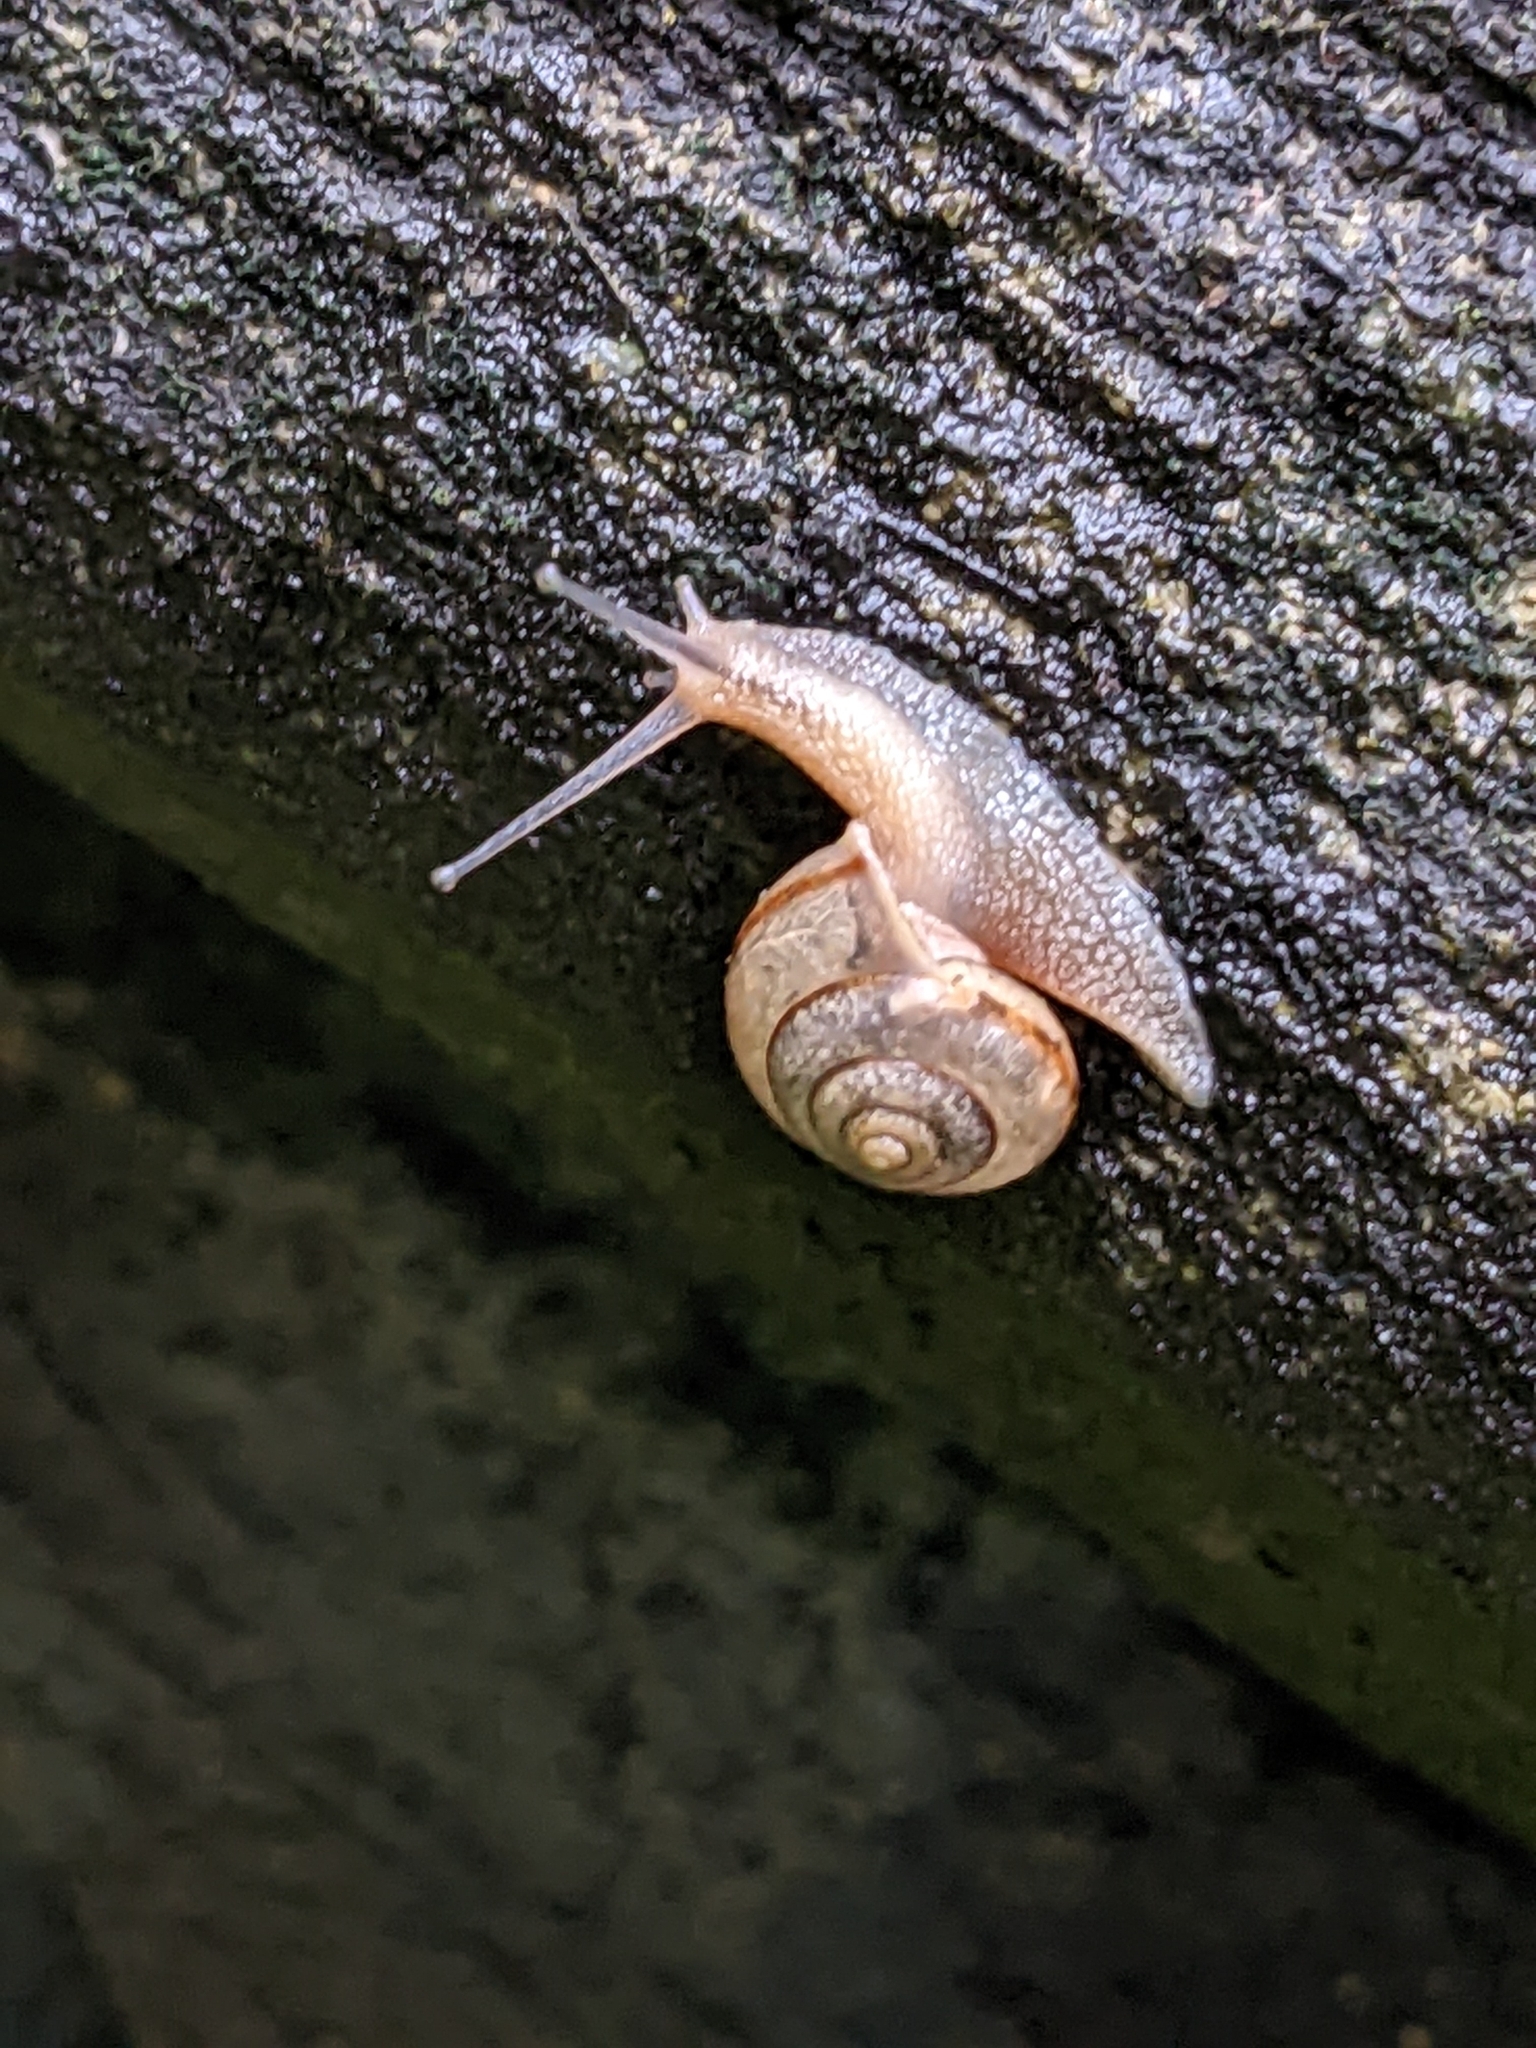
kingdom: Animalia
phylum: Mollusca
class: Gastropoda
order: Stylommatophora
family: Camaenidae
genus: Bradybaena
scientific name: Bradybaena similaris
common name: Asian trampsnail
